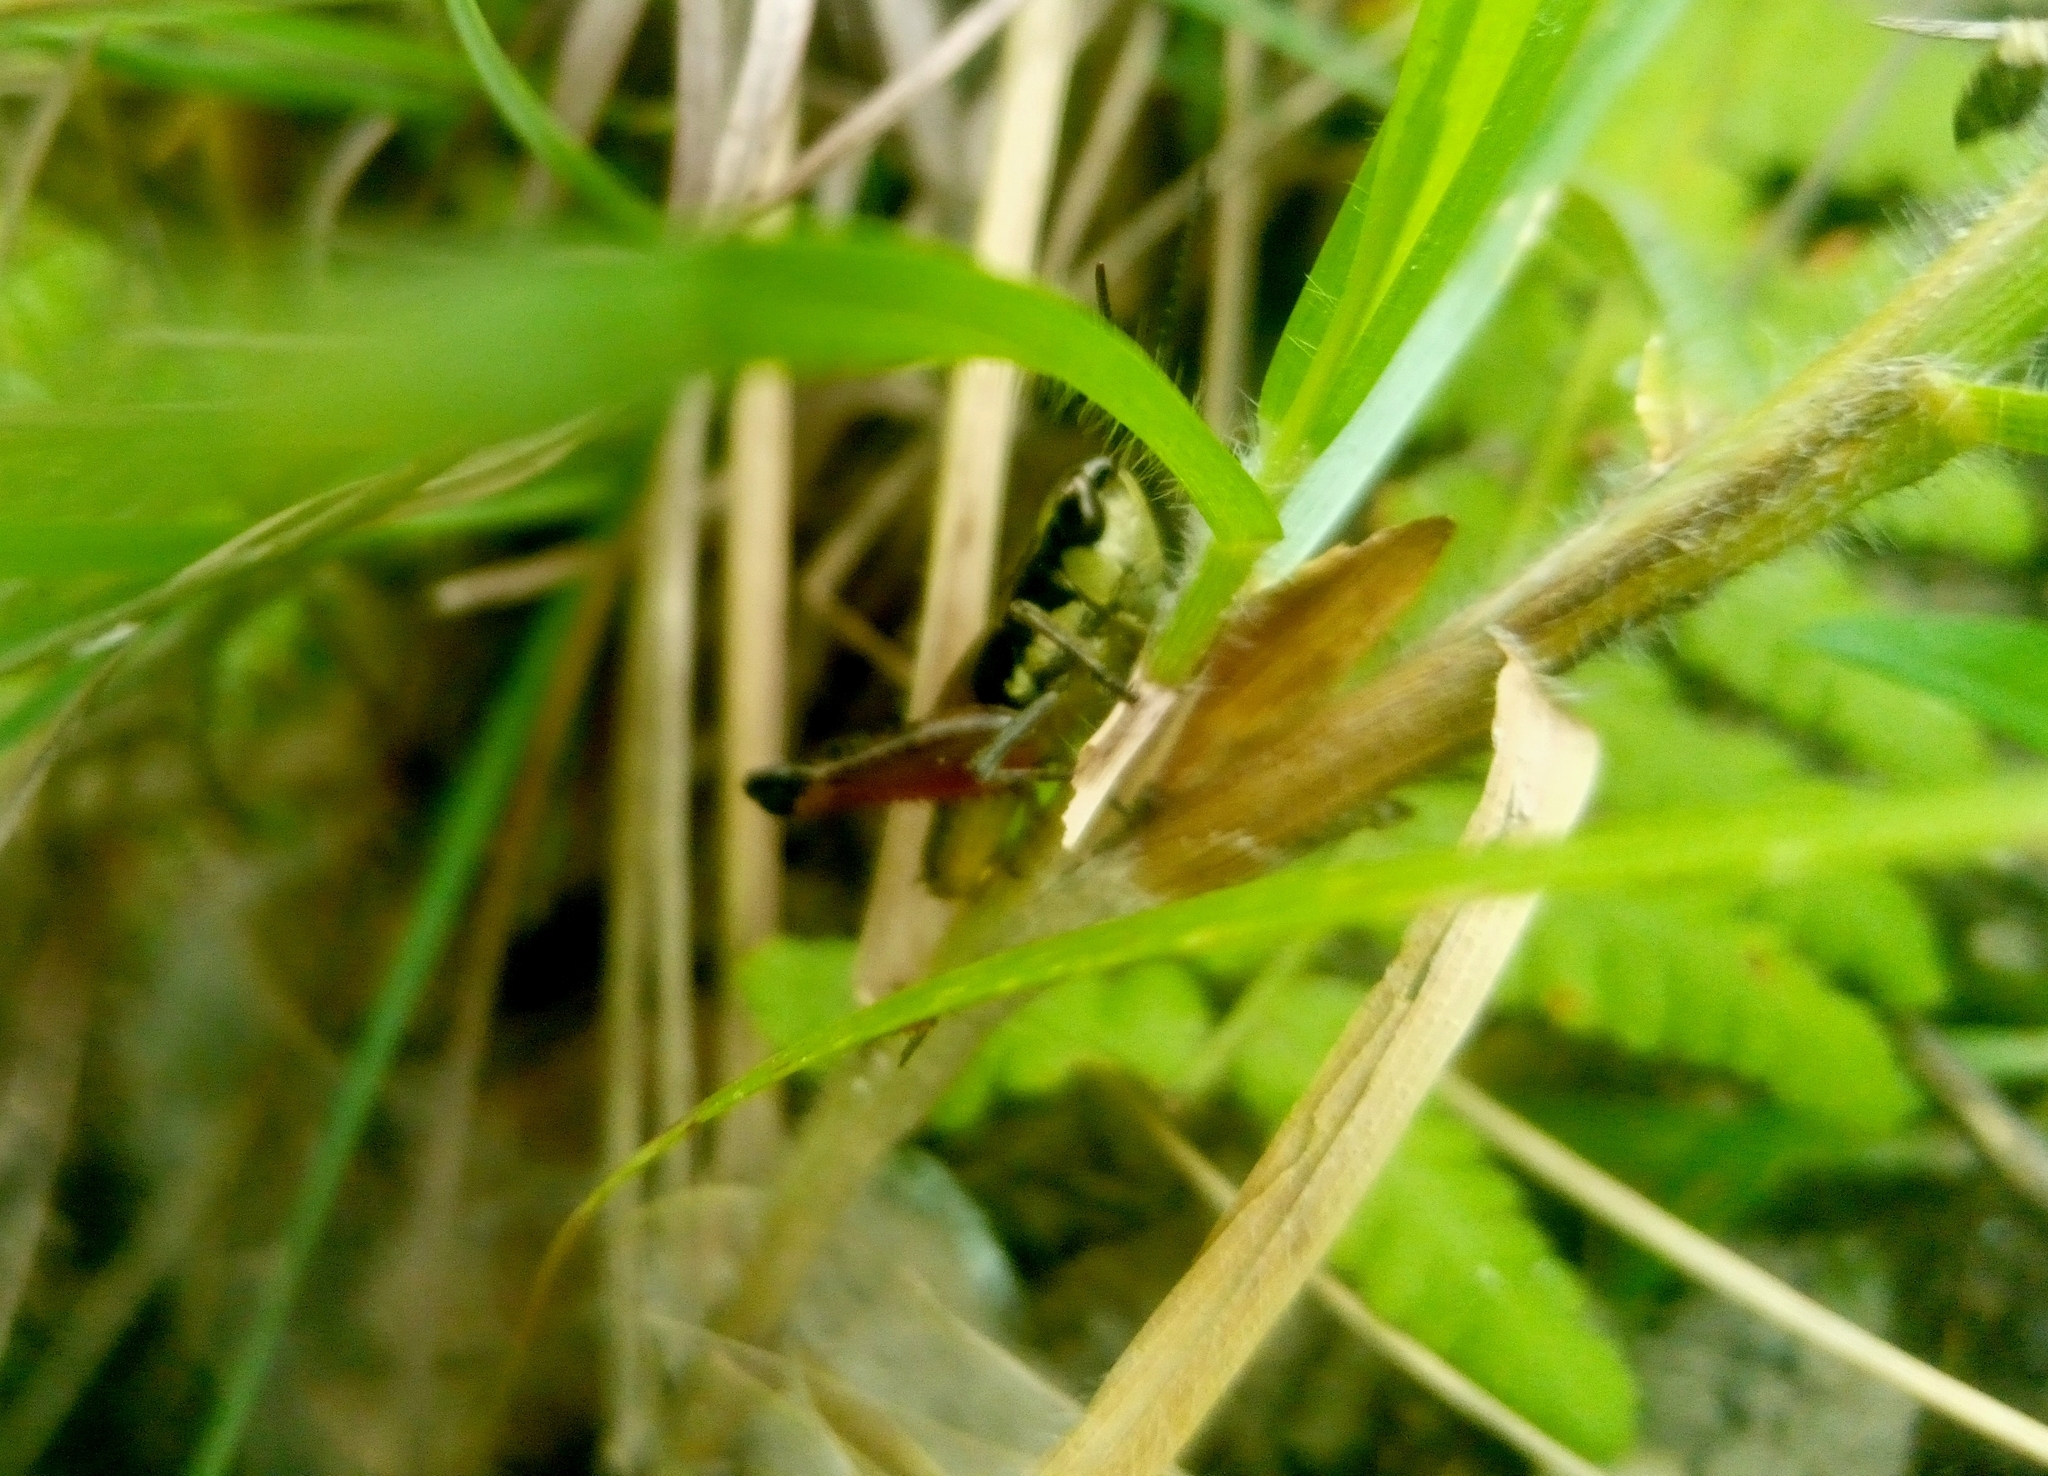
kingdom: Animalia
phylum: Arthropoda
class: Insecta
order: Orthoptera
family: Acrididae
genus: Boopedon
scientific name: Boopedon rufipes
